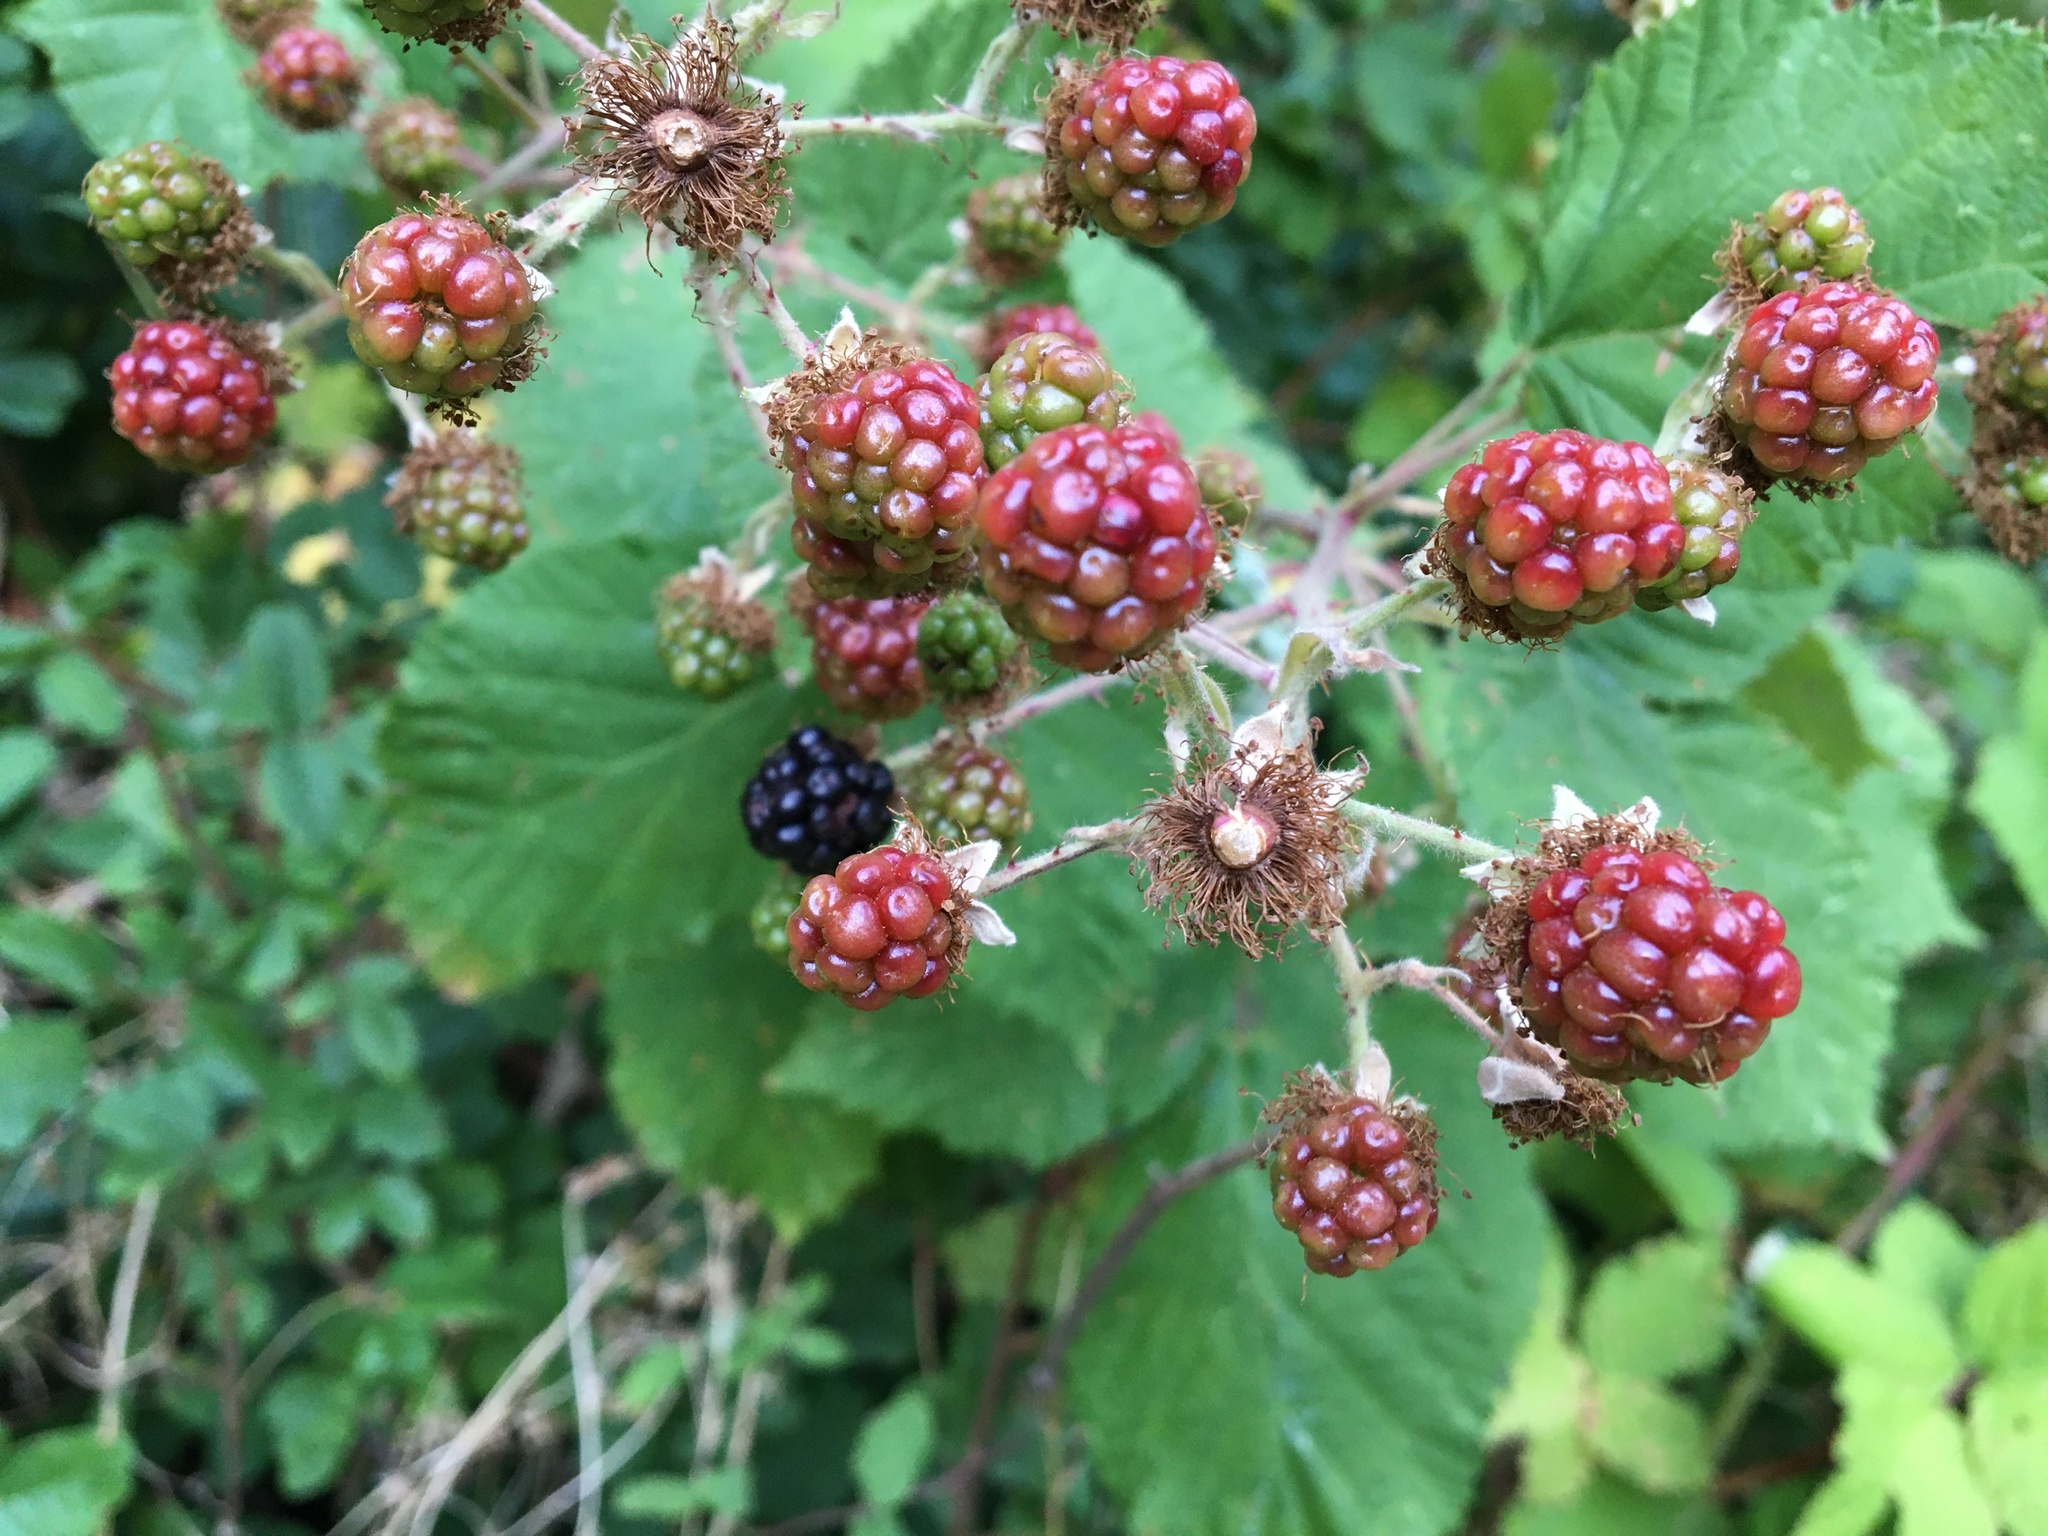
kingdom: Plantae
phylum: Tracheophyta
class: Magnoliopsida
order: Rosales
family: Rosaceae
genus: Rubus
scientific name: Rubus bifrons
